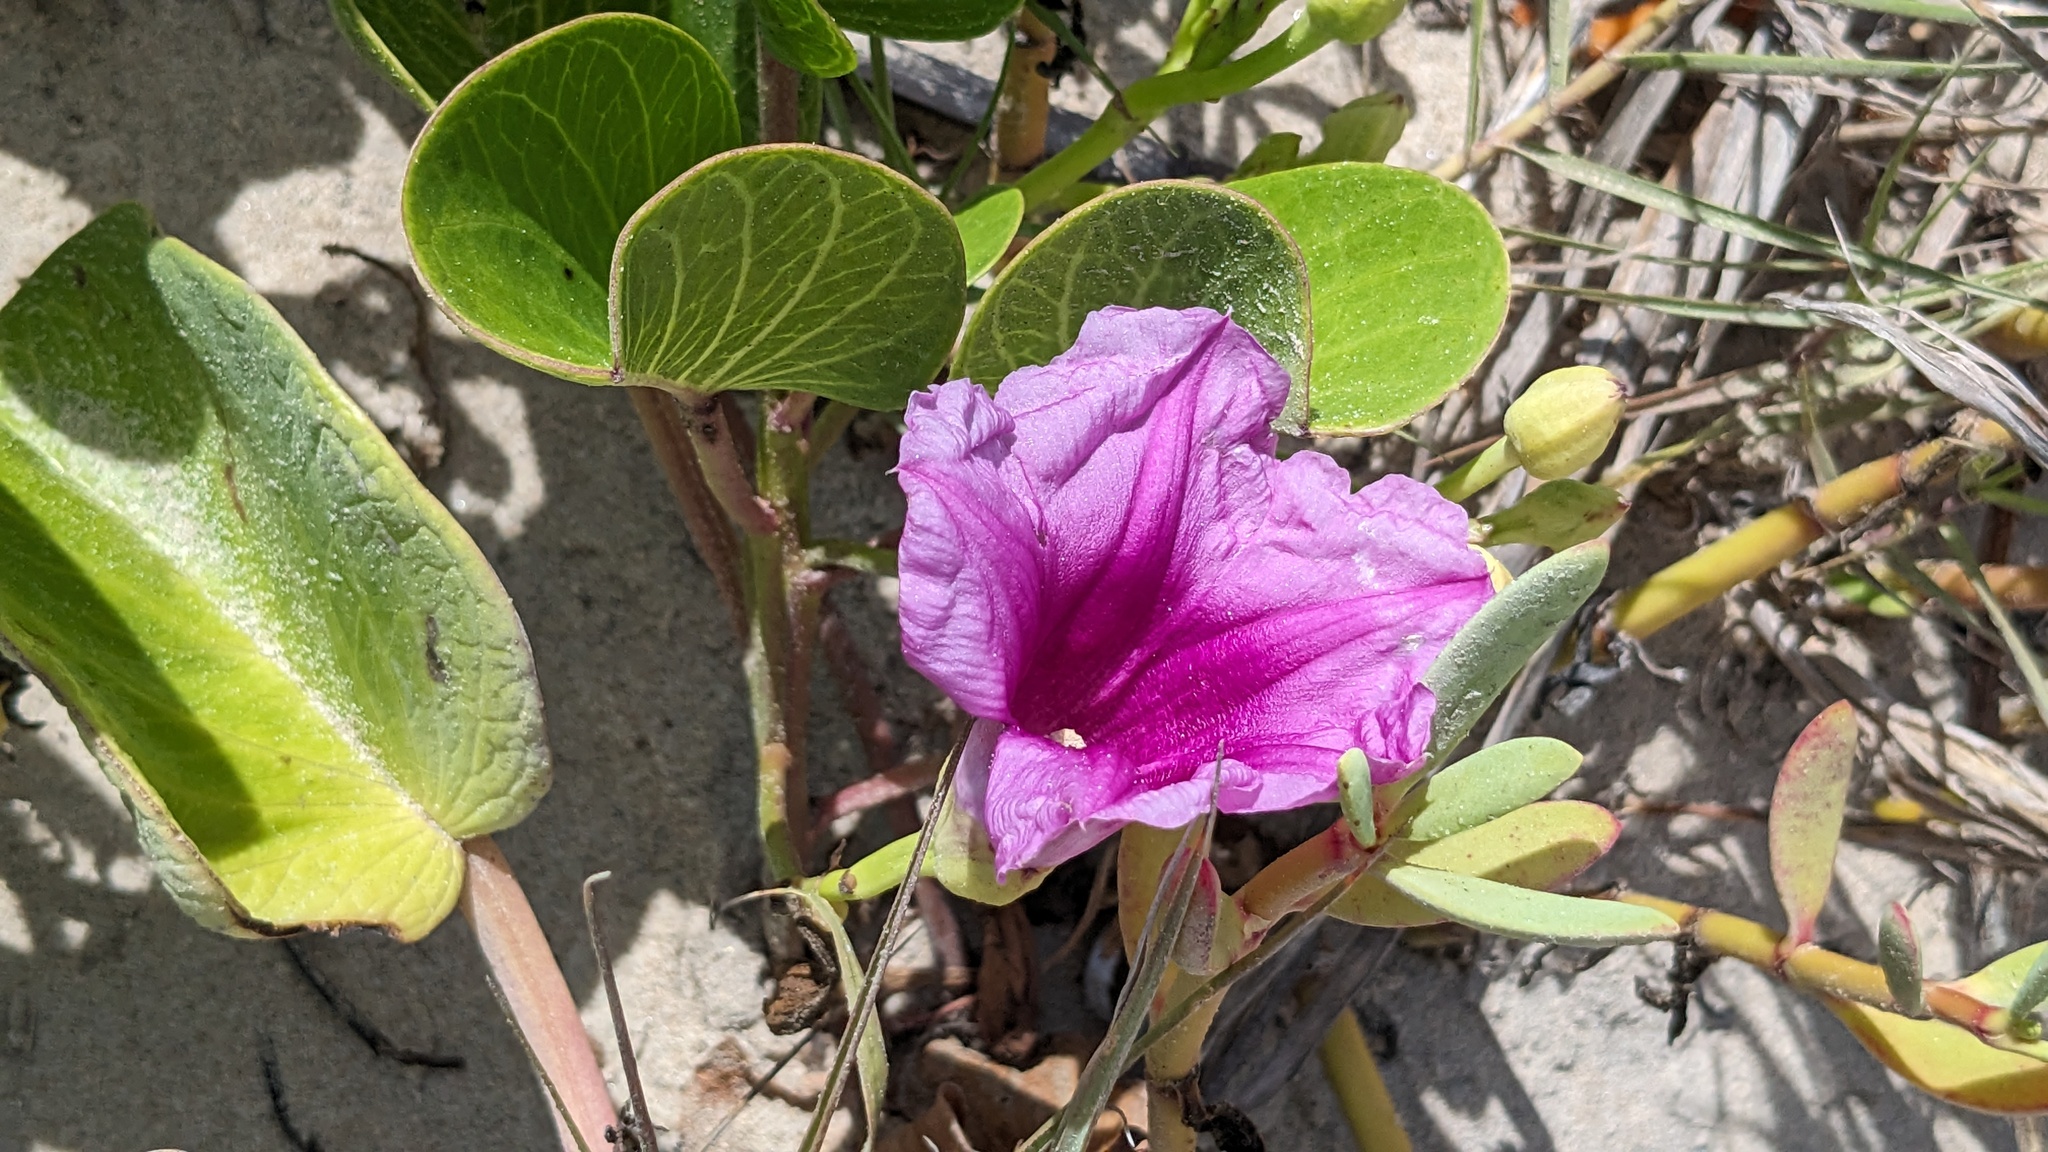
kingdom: Plantae
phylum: Tracheophyta
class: Magnoliopsida
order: Solanales
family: Convolvulaceae
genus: Ipomoea
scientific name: Ipomoea pes-caprae
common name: Beach morning glory
